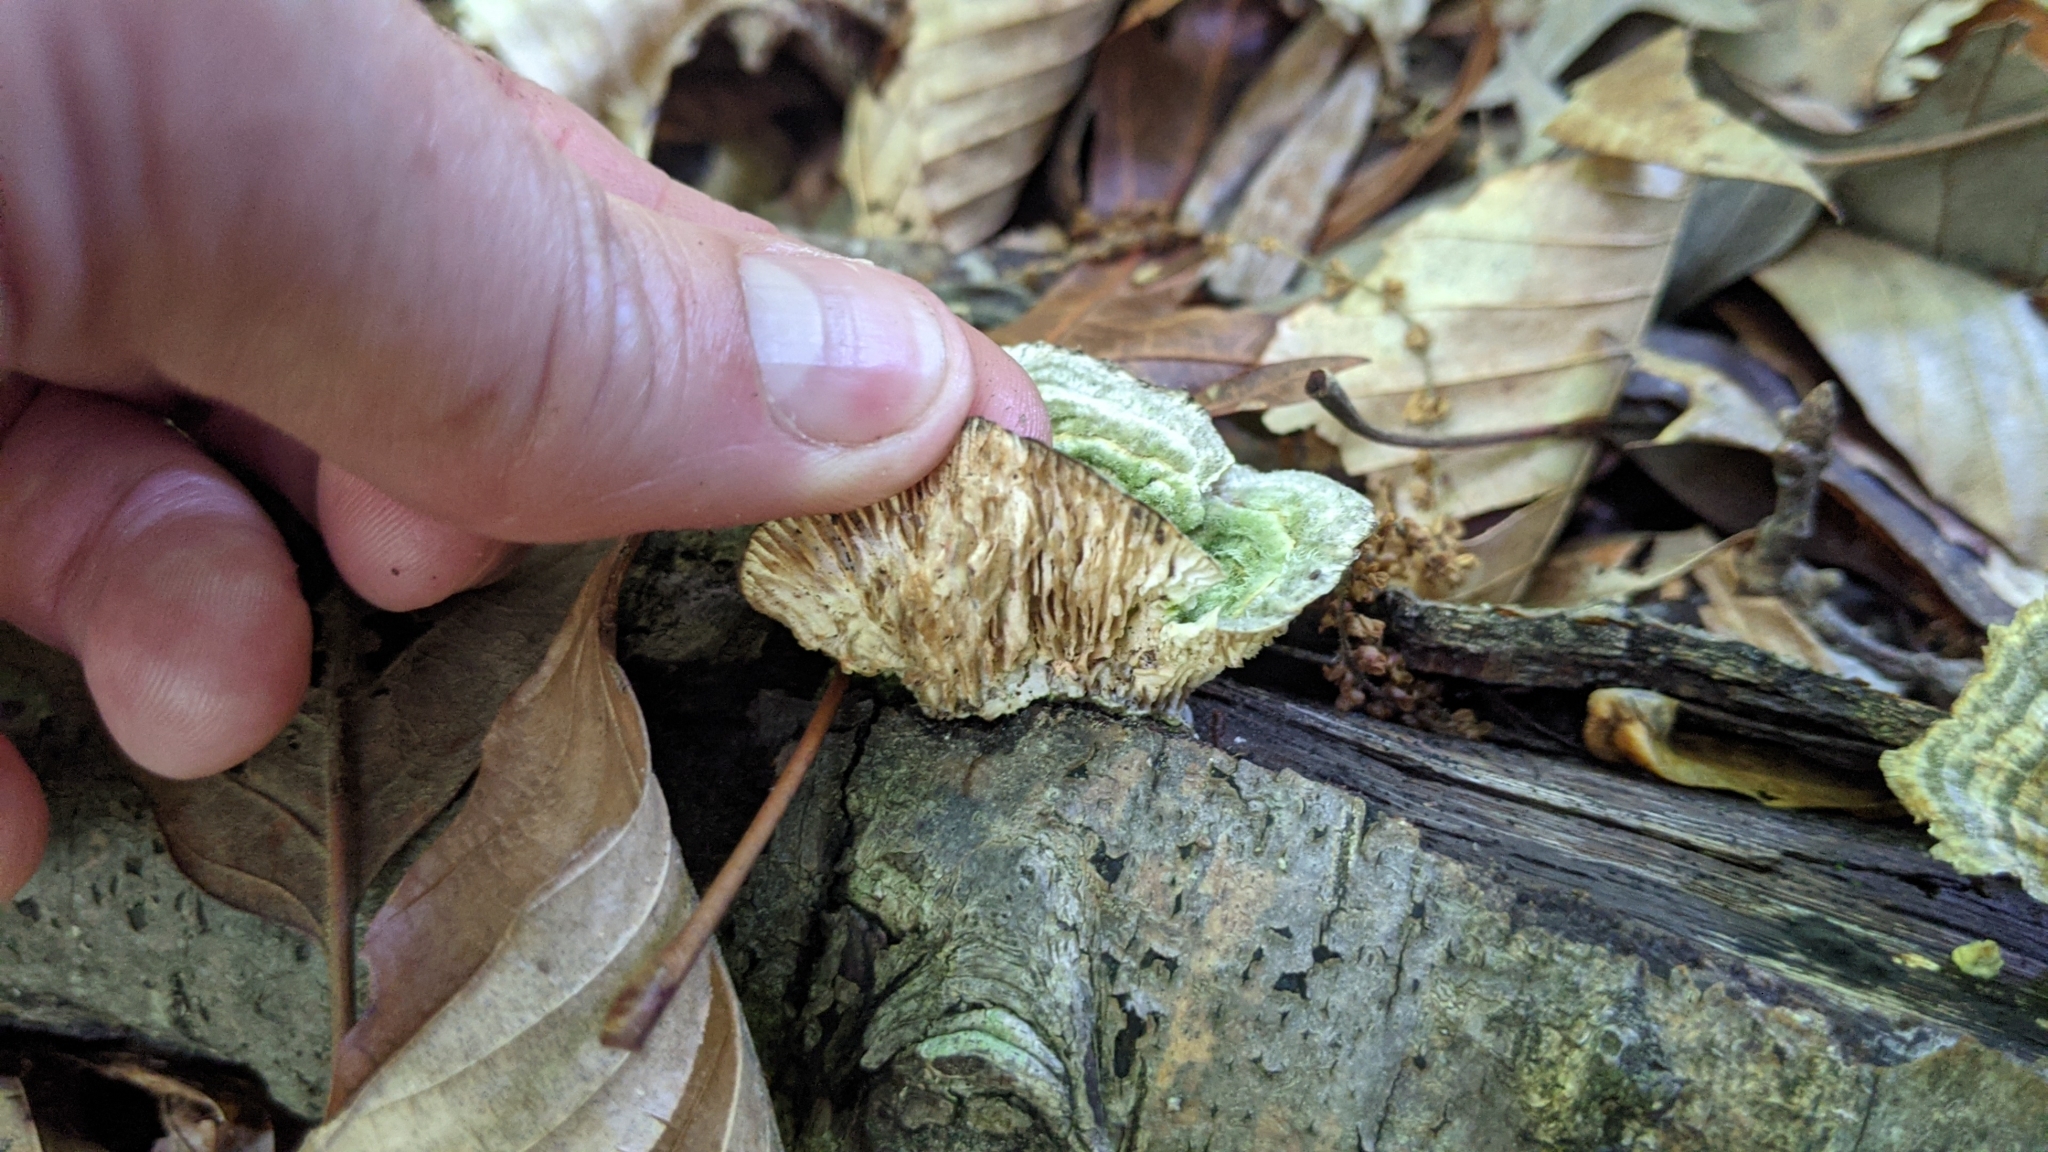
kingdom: Fungi
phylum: Basidiomycota
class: Agaricomycetes
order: Polyporales
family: Polyporaceae
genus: Lenzites
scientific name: Lenzites betulinus
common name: Birch mazegill
